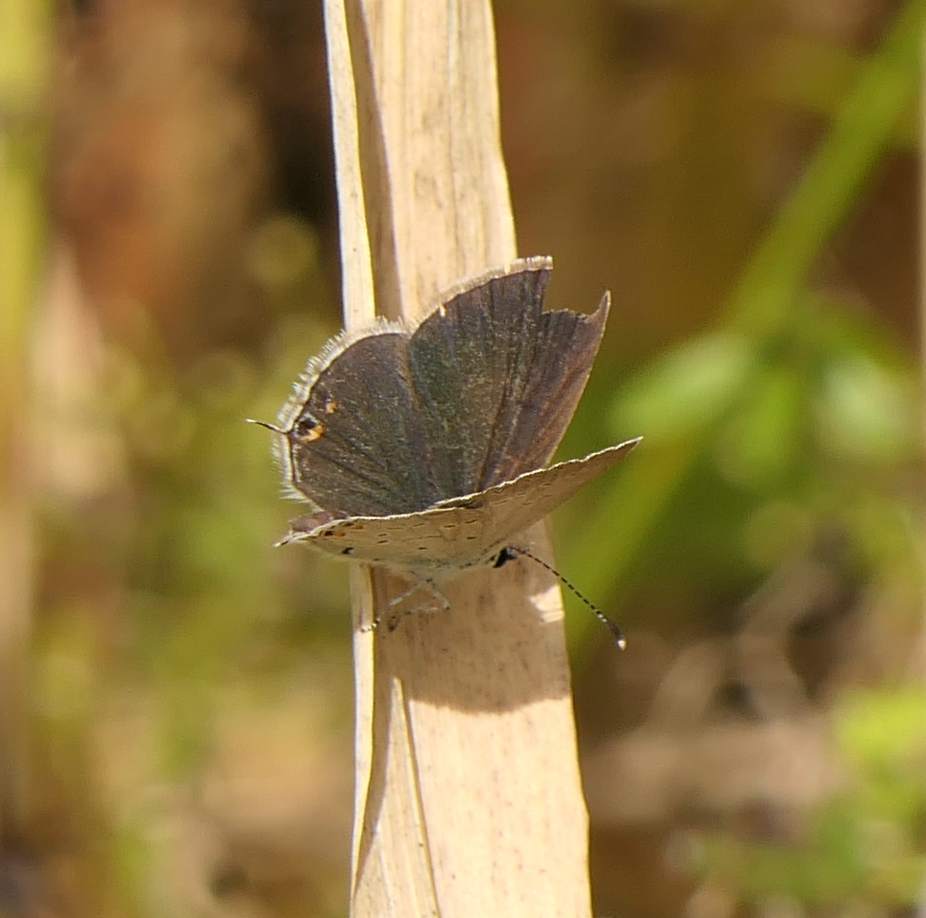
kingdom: Animalia
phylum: Arthropoda
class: Insecta
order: Lepidoptera
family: Lycaenidae
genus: Elkalyce
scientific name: Elkalyce comyntas
